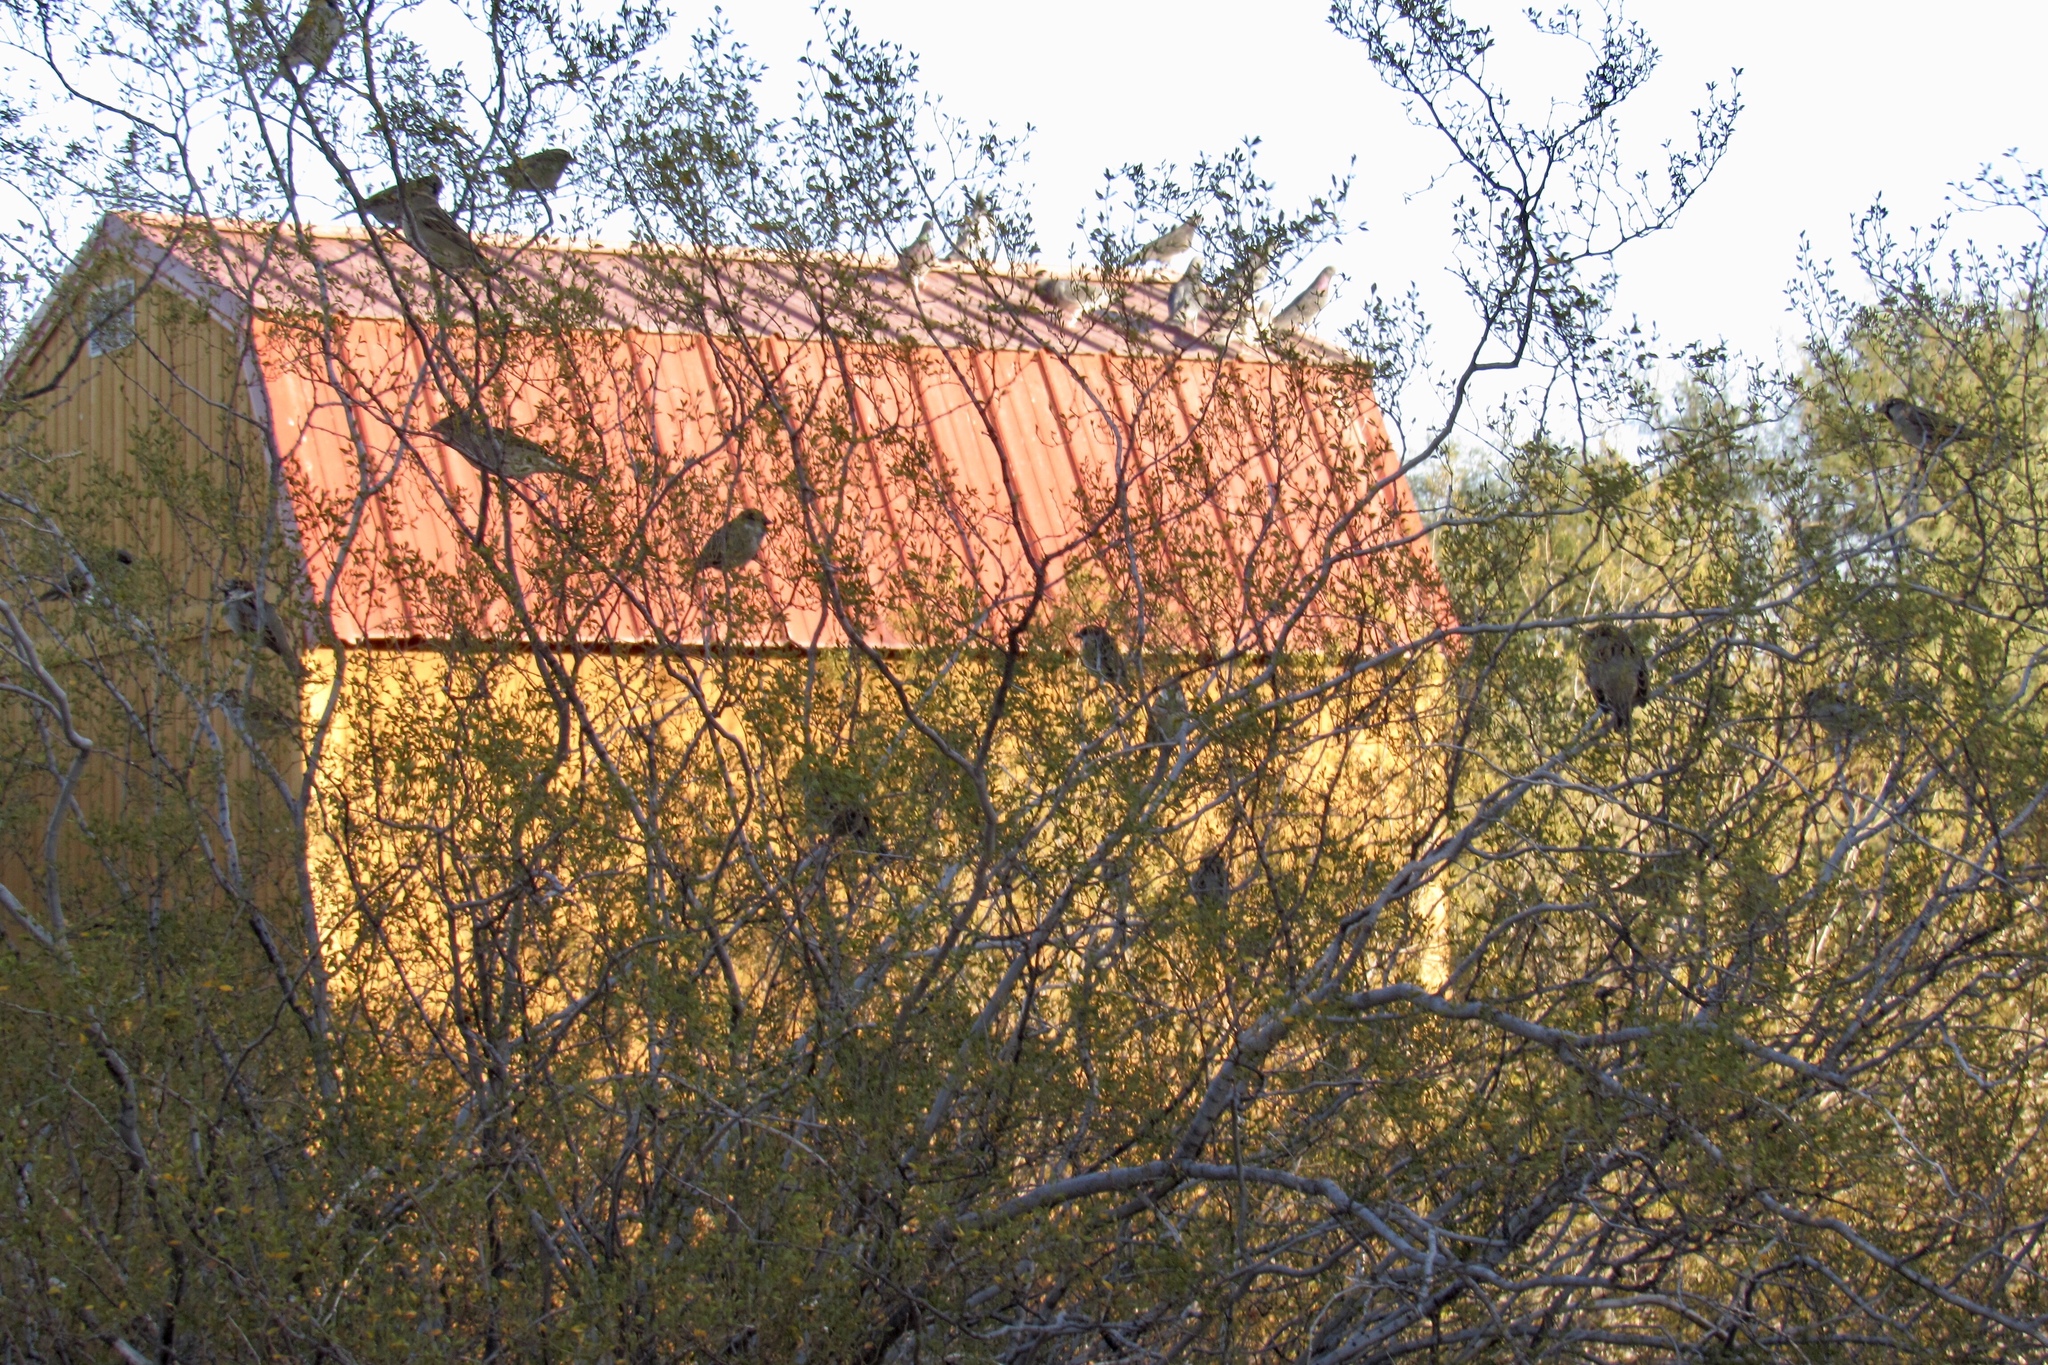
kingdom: Animalia
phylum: Chordata
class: Aves
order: Passeriformes
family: Passeridae
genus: Passer
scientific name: Passer domesticus
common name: House sparrow
